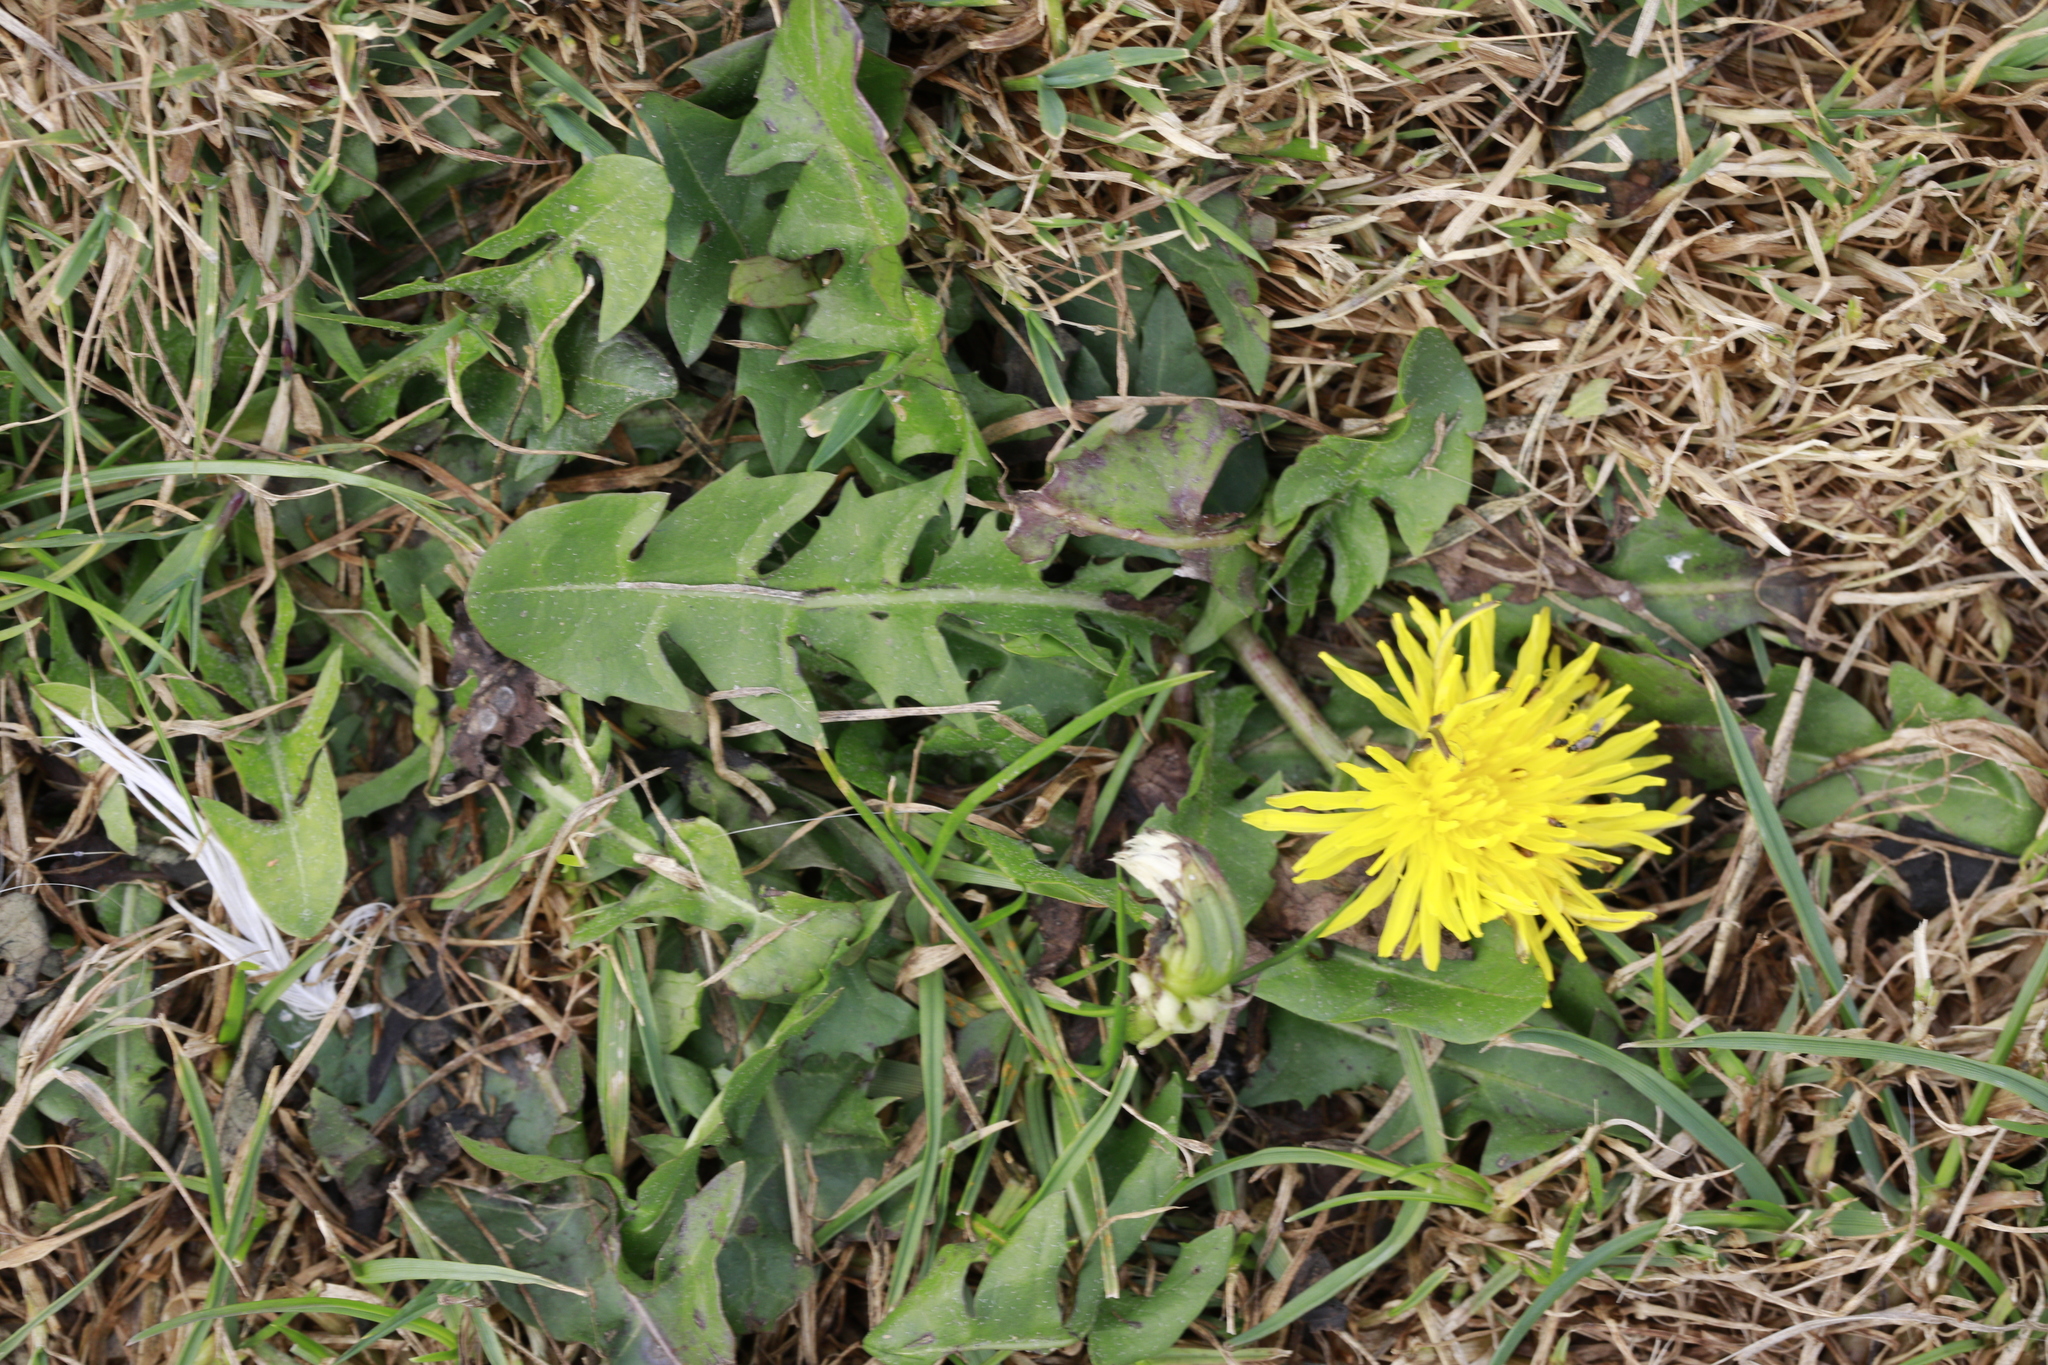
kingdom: Plantae
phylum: Tracheophyta
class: Magnoliopsida
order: Asterales
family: Asteraceae
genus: Taraxacum
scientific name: Taraxacum officinale
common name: Common dandelion
